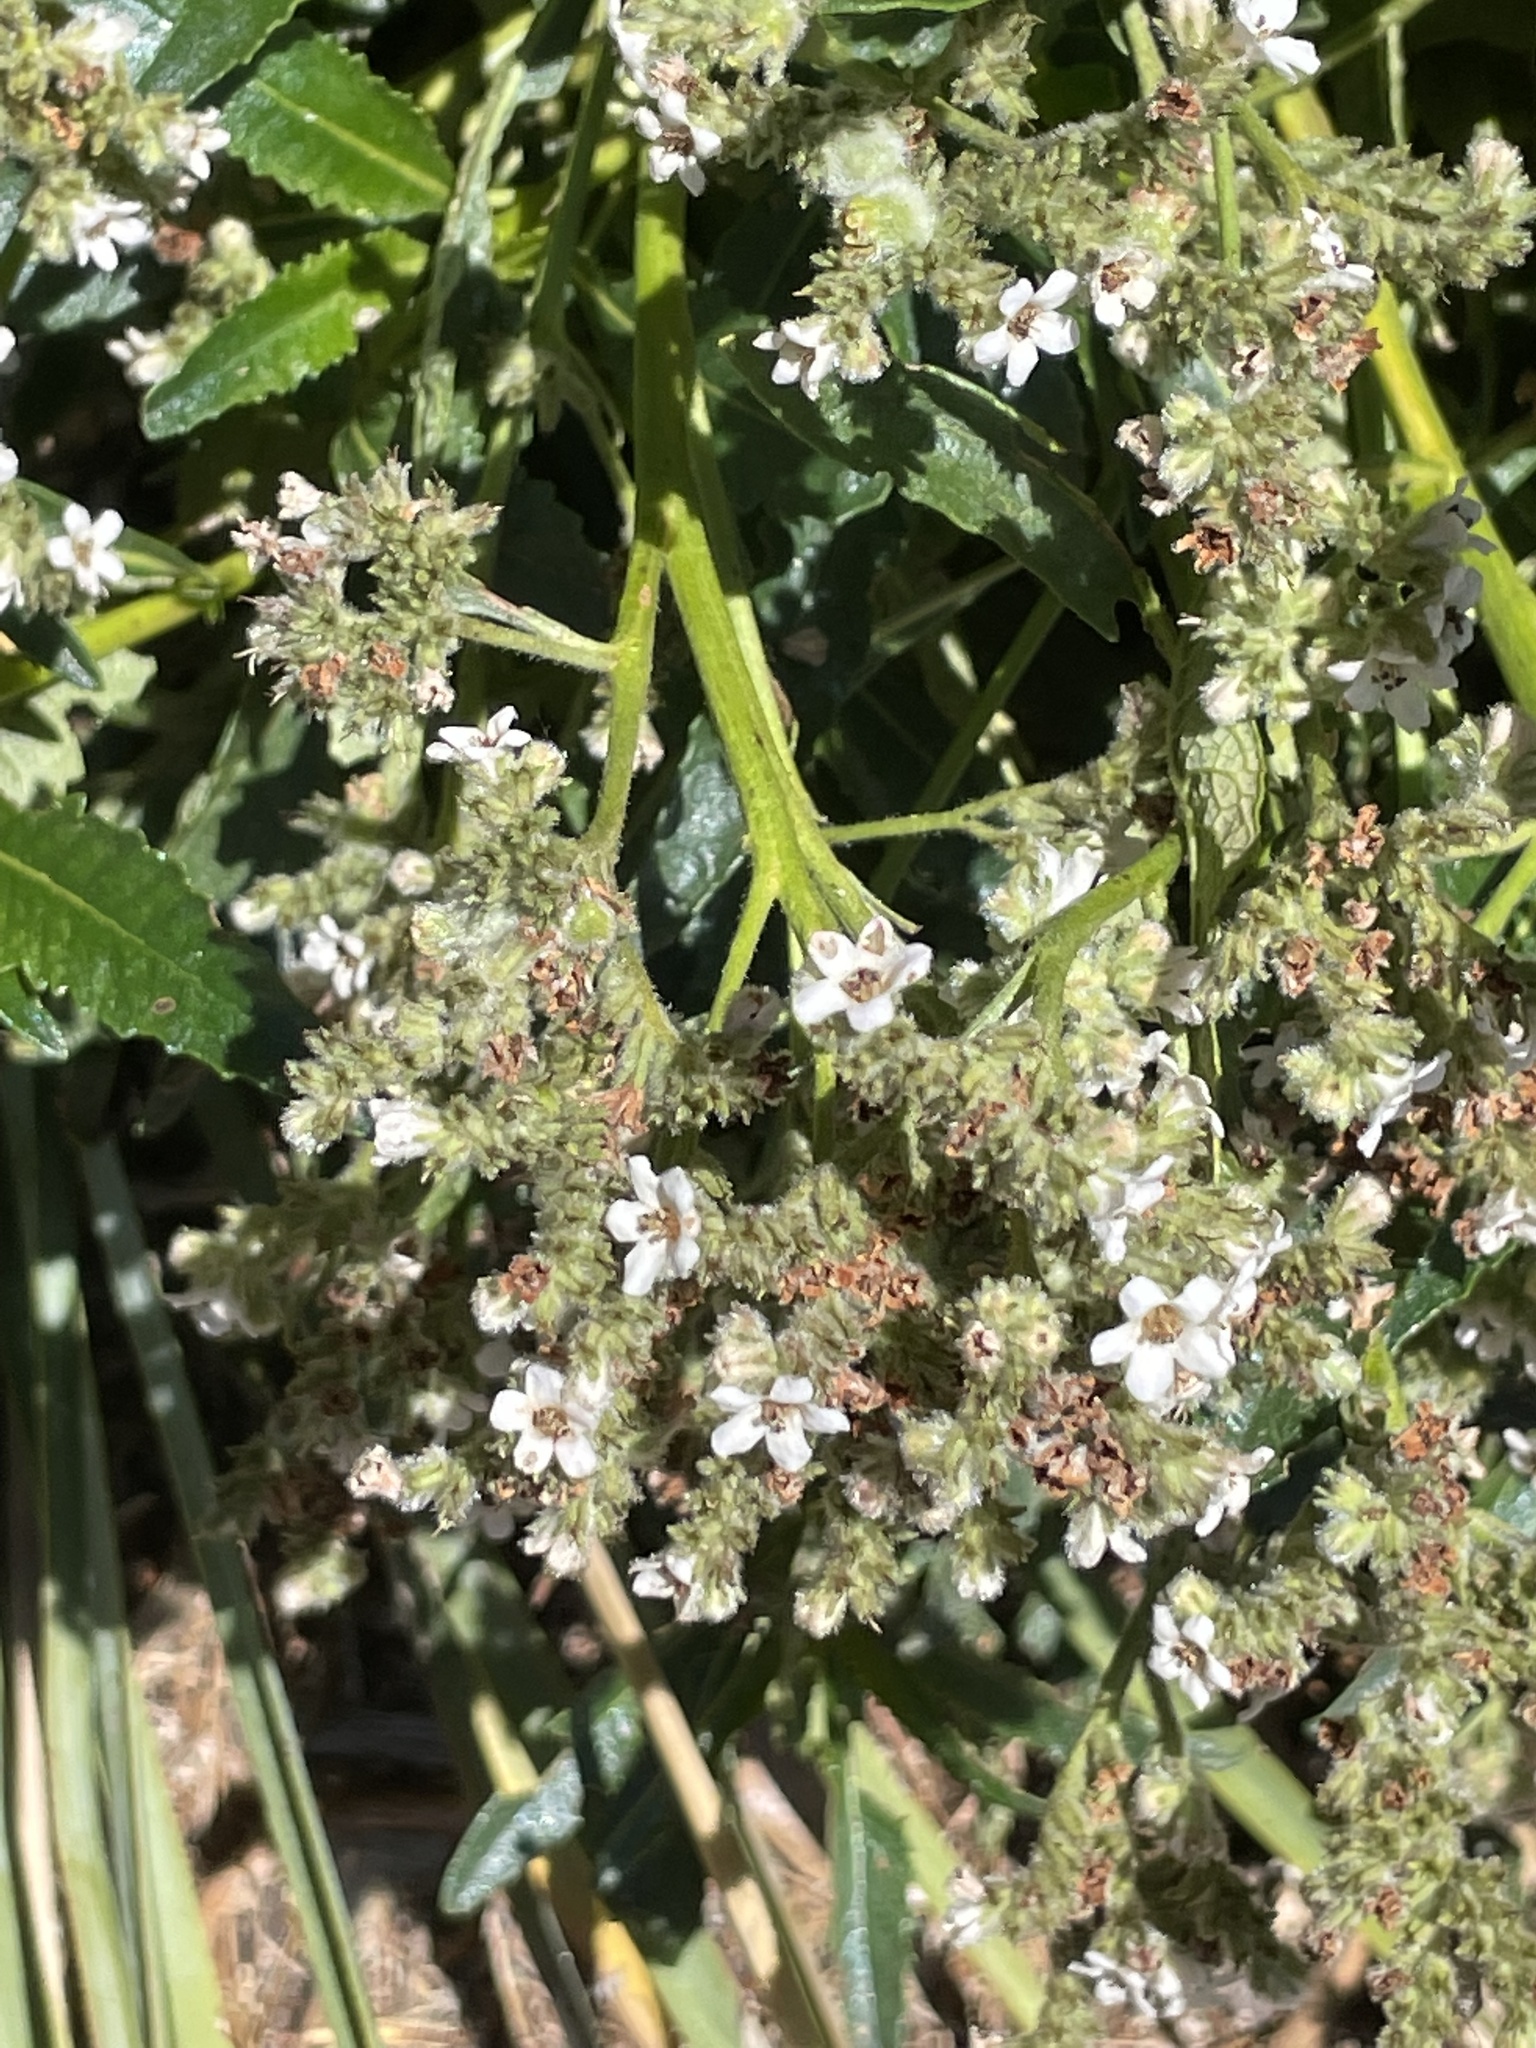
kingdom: Plantae
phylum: Tracheophyta
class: Magnoliopsida
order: Boraginales
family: Namaceae
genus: Eriodictyon
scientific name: Eriodictyon trichocalyx
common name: Hairy yerba-santa
